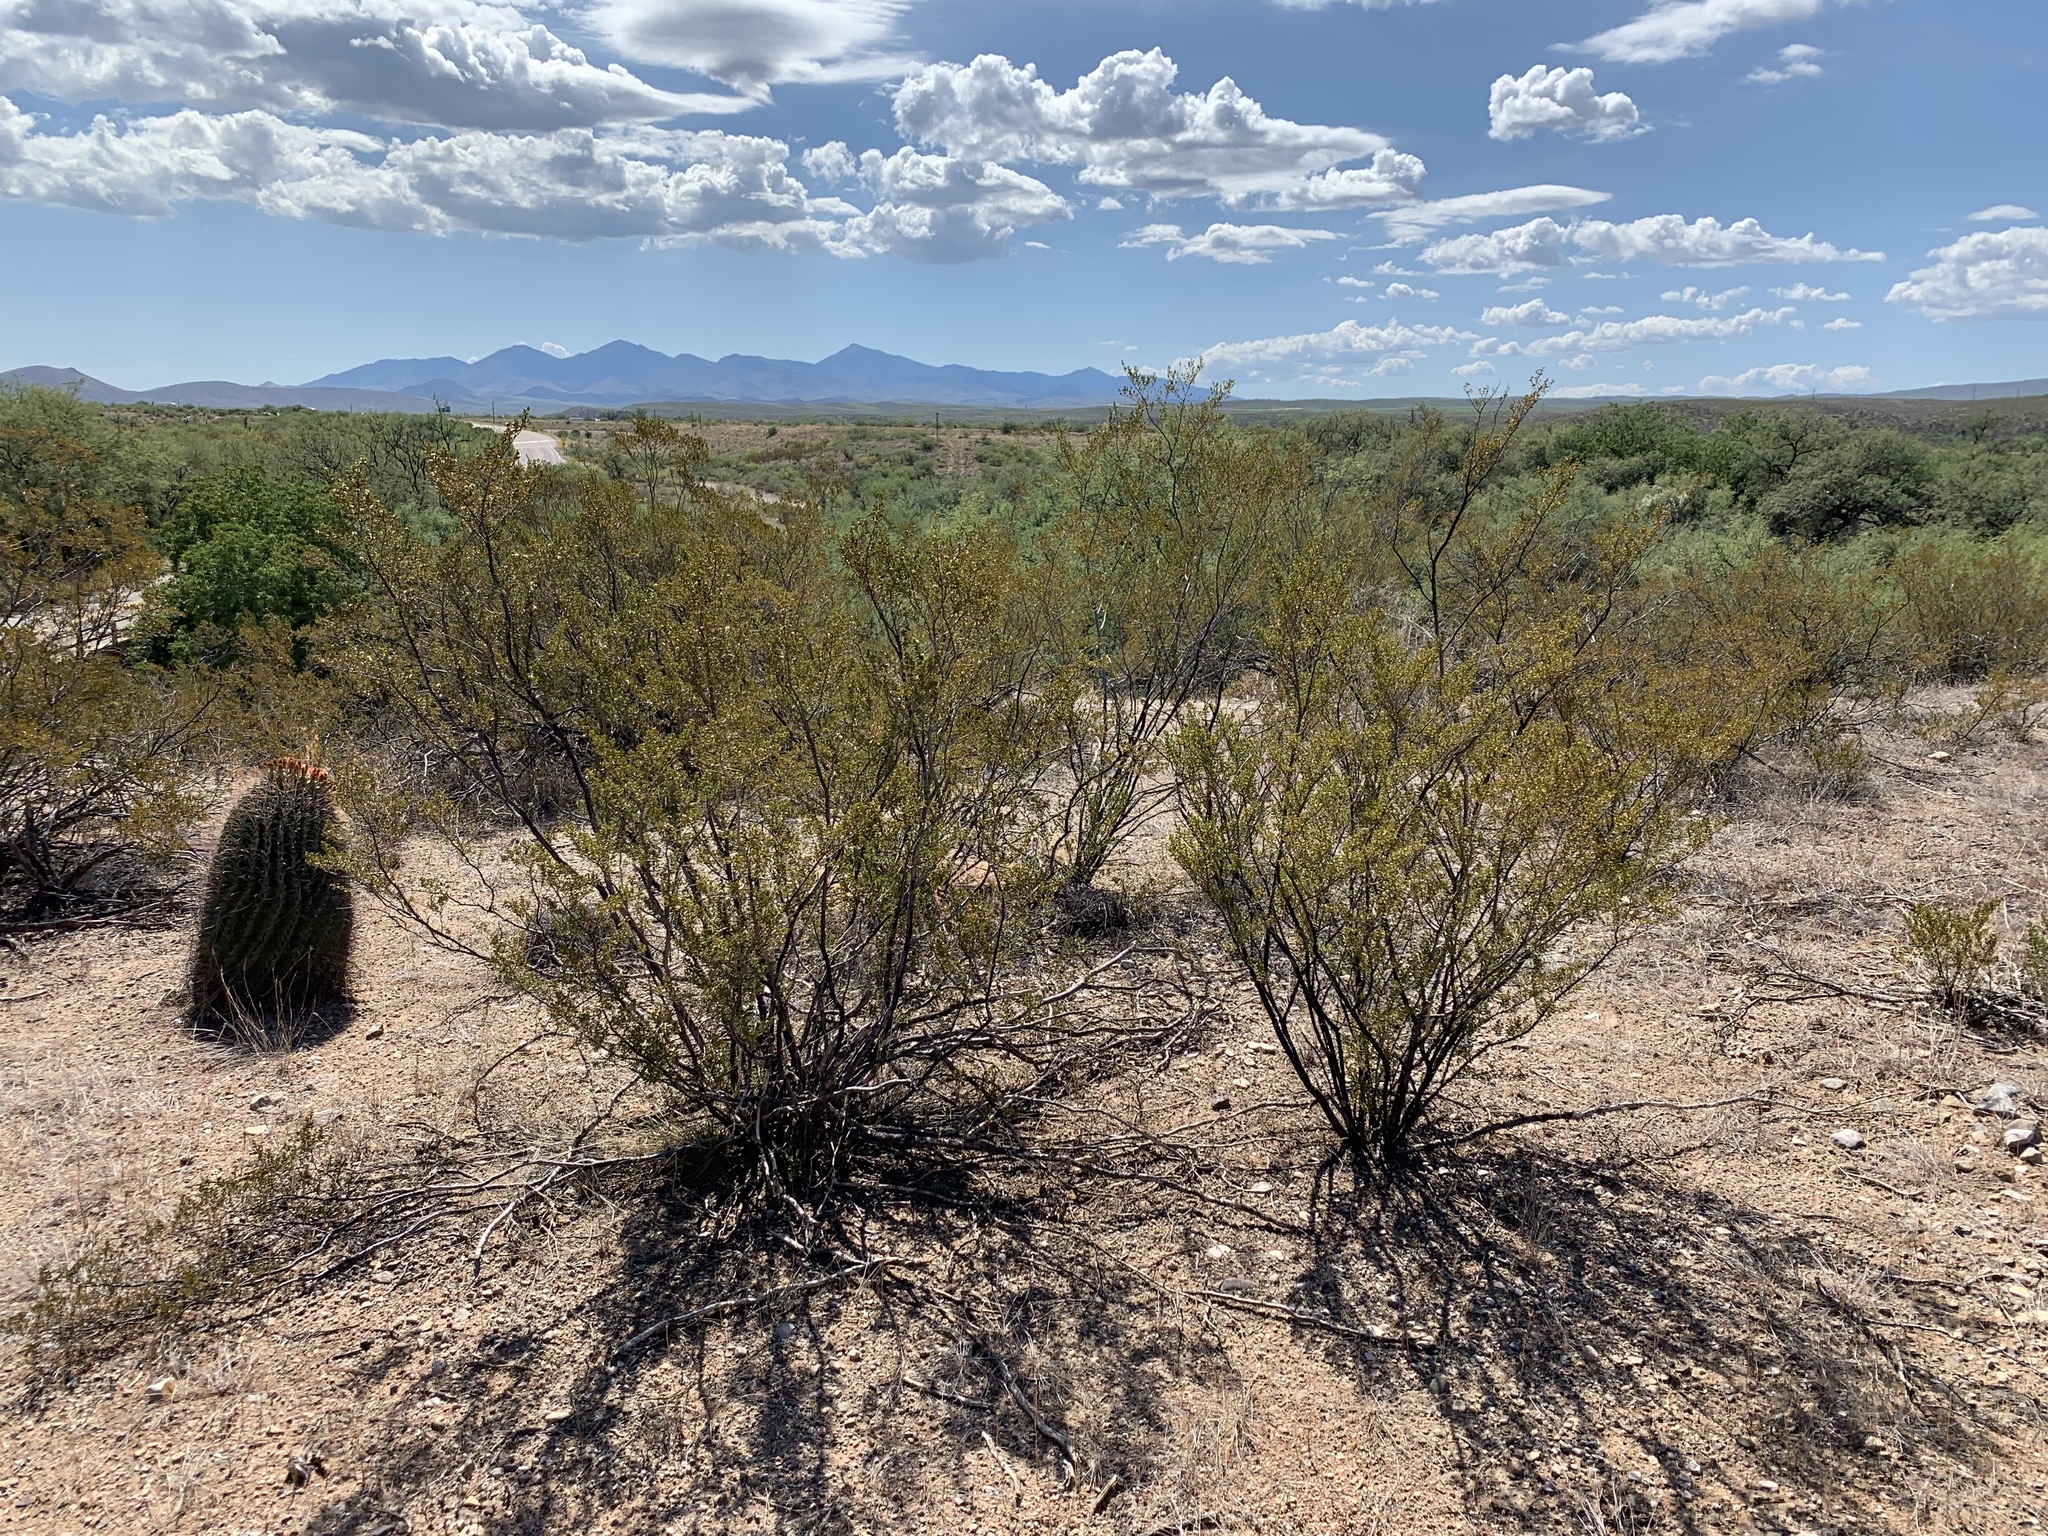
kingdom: Plantae
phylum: Tracheophyta
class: Magnoliopsida
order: Zygophyllales
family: Zygophyllaceae
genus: Larrea
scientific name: Larrea tridentata
